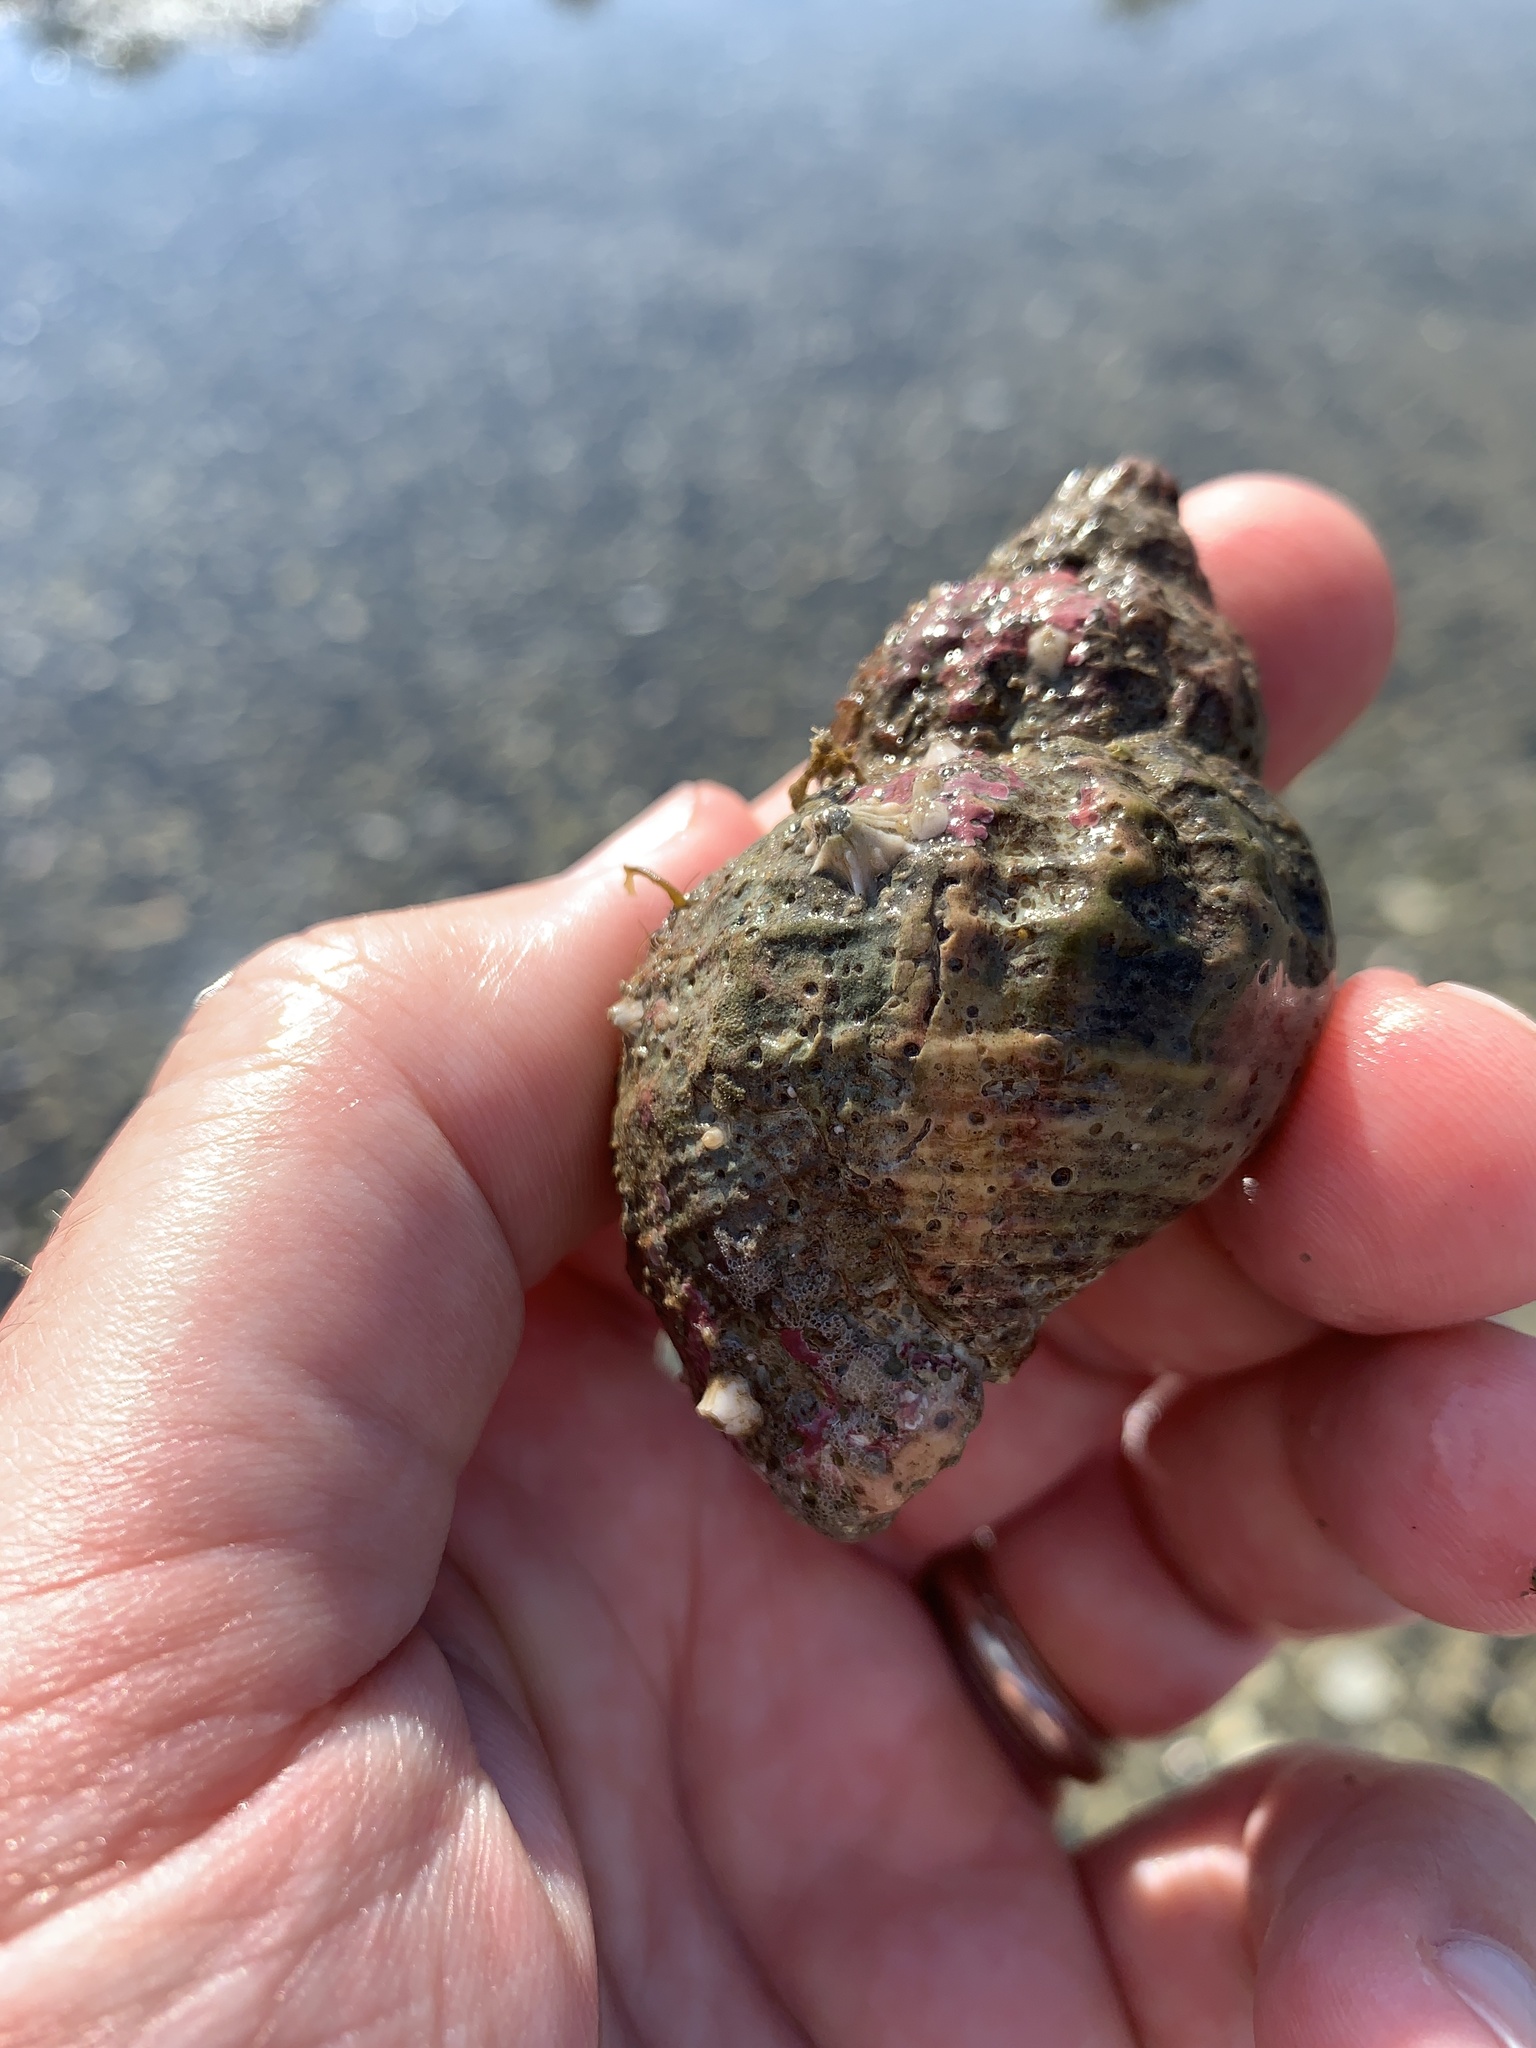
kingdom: Animalia
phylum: Mollusca
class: Gastropoda
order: Neogastropoda
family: Buccinidae
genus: Buccinum
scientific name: Buccinum undatum
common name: Common whelk
